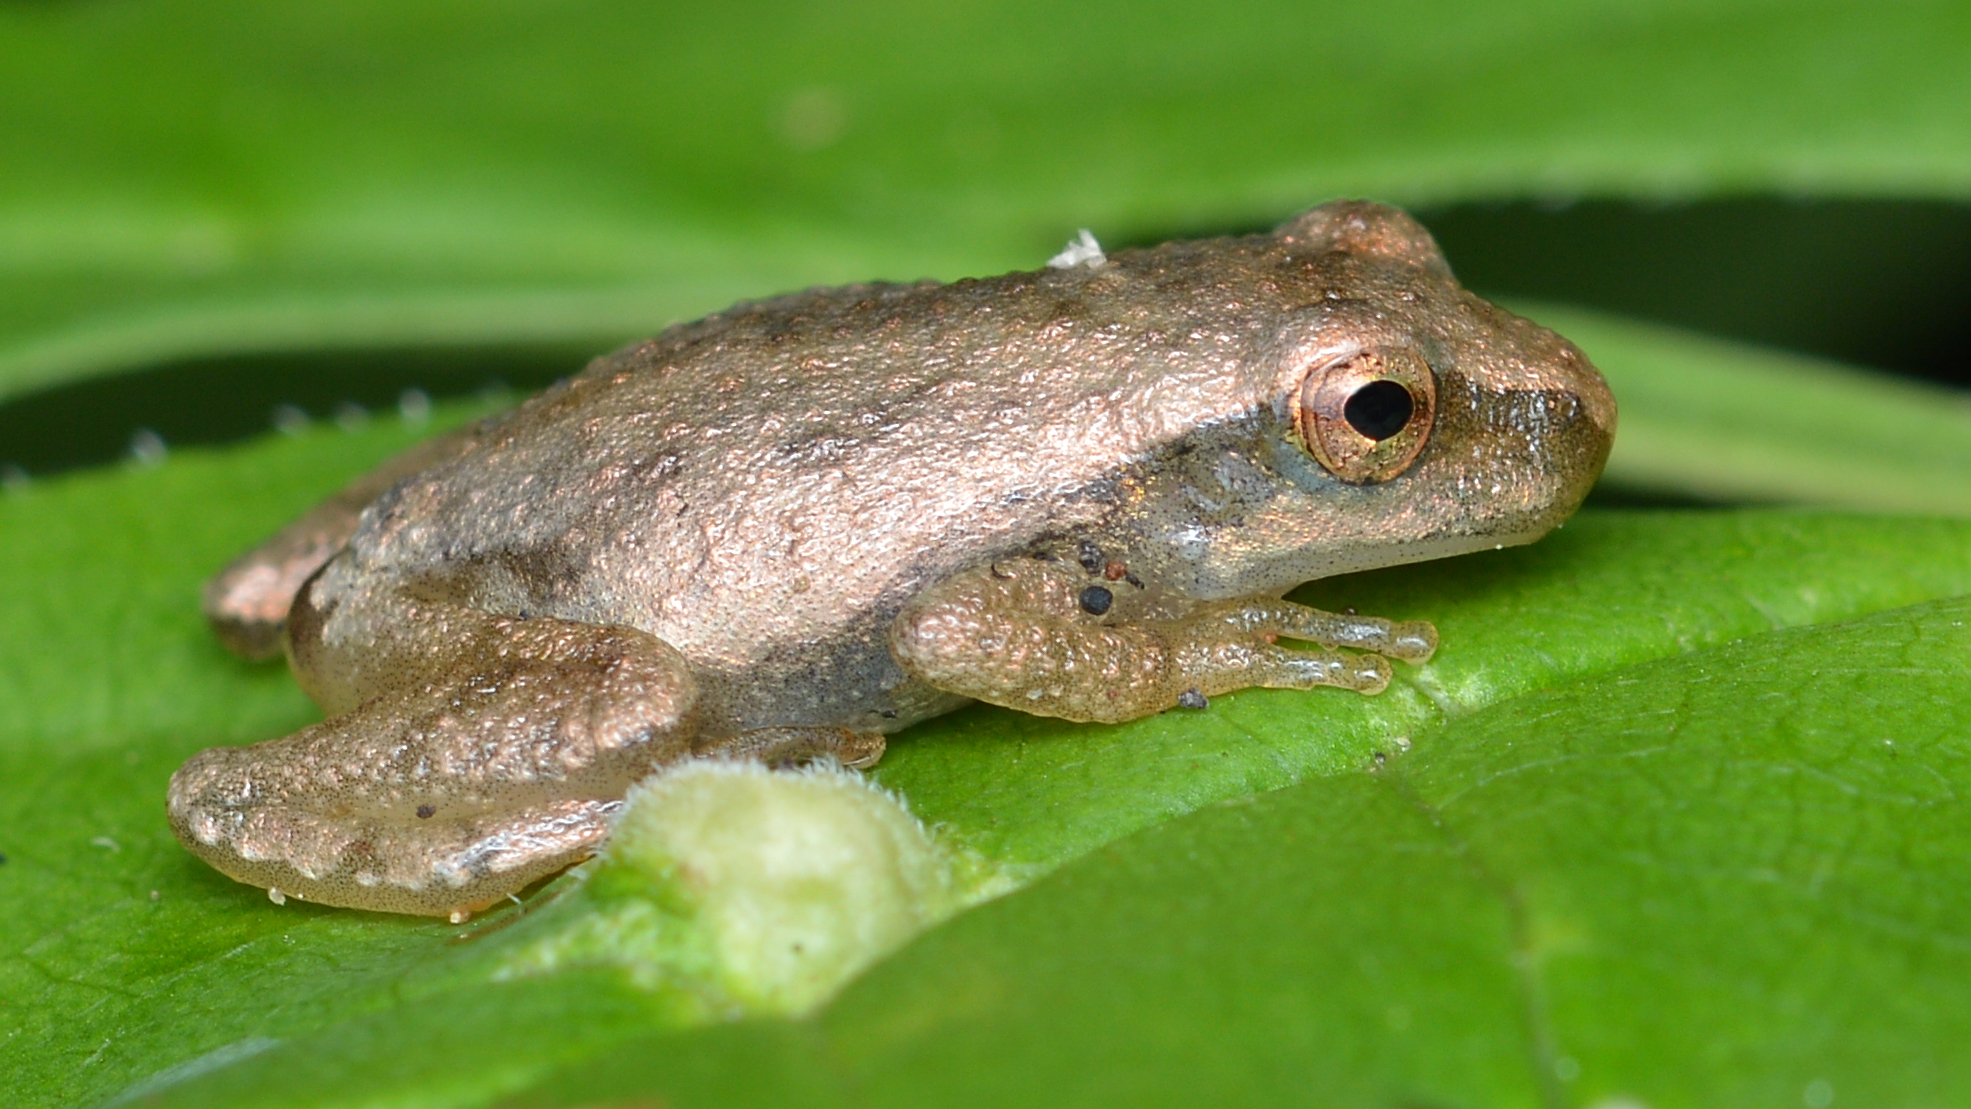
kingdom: Animalia
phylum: Chordata
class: Amphibia
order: Anura
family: Hylidae
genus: Pseudacris
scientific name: Pseudacris crucifer
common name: Spring peeper
